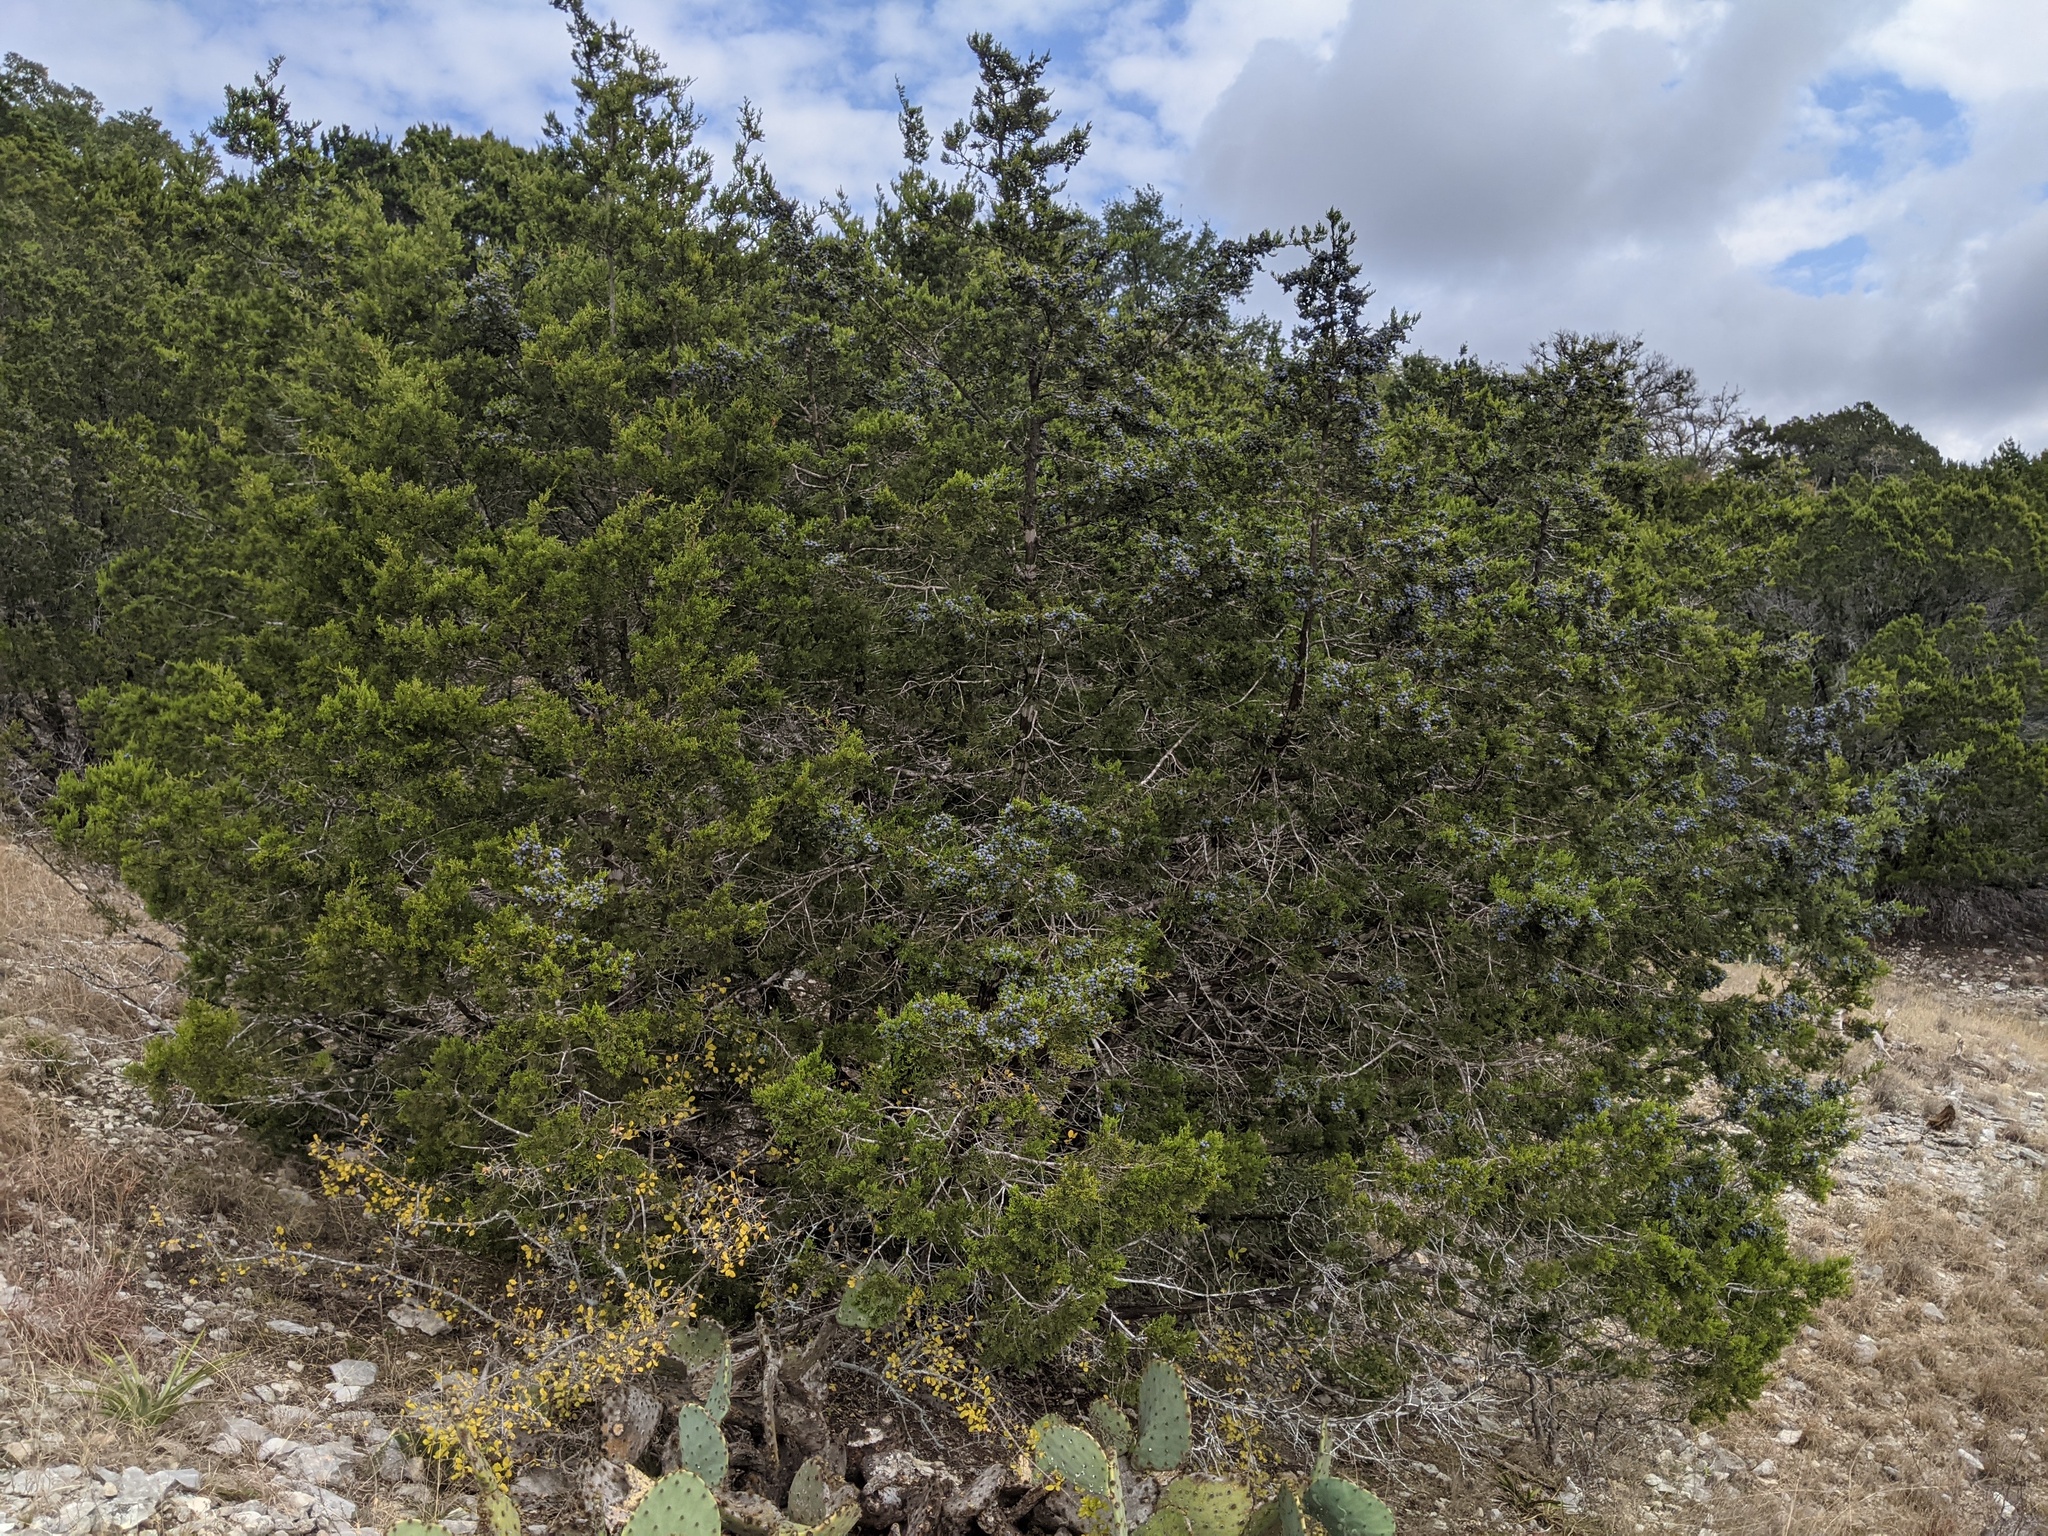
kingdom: Plantae
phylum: Tracheophyta
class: Pinopsida
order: Pinales
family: Cupressaceae
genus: Juniperus
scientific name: Juniperus ashei
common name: Mexican juniper
